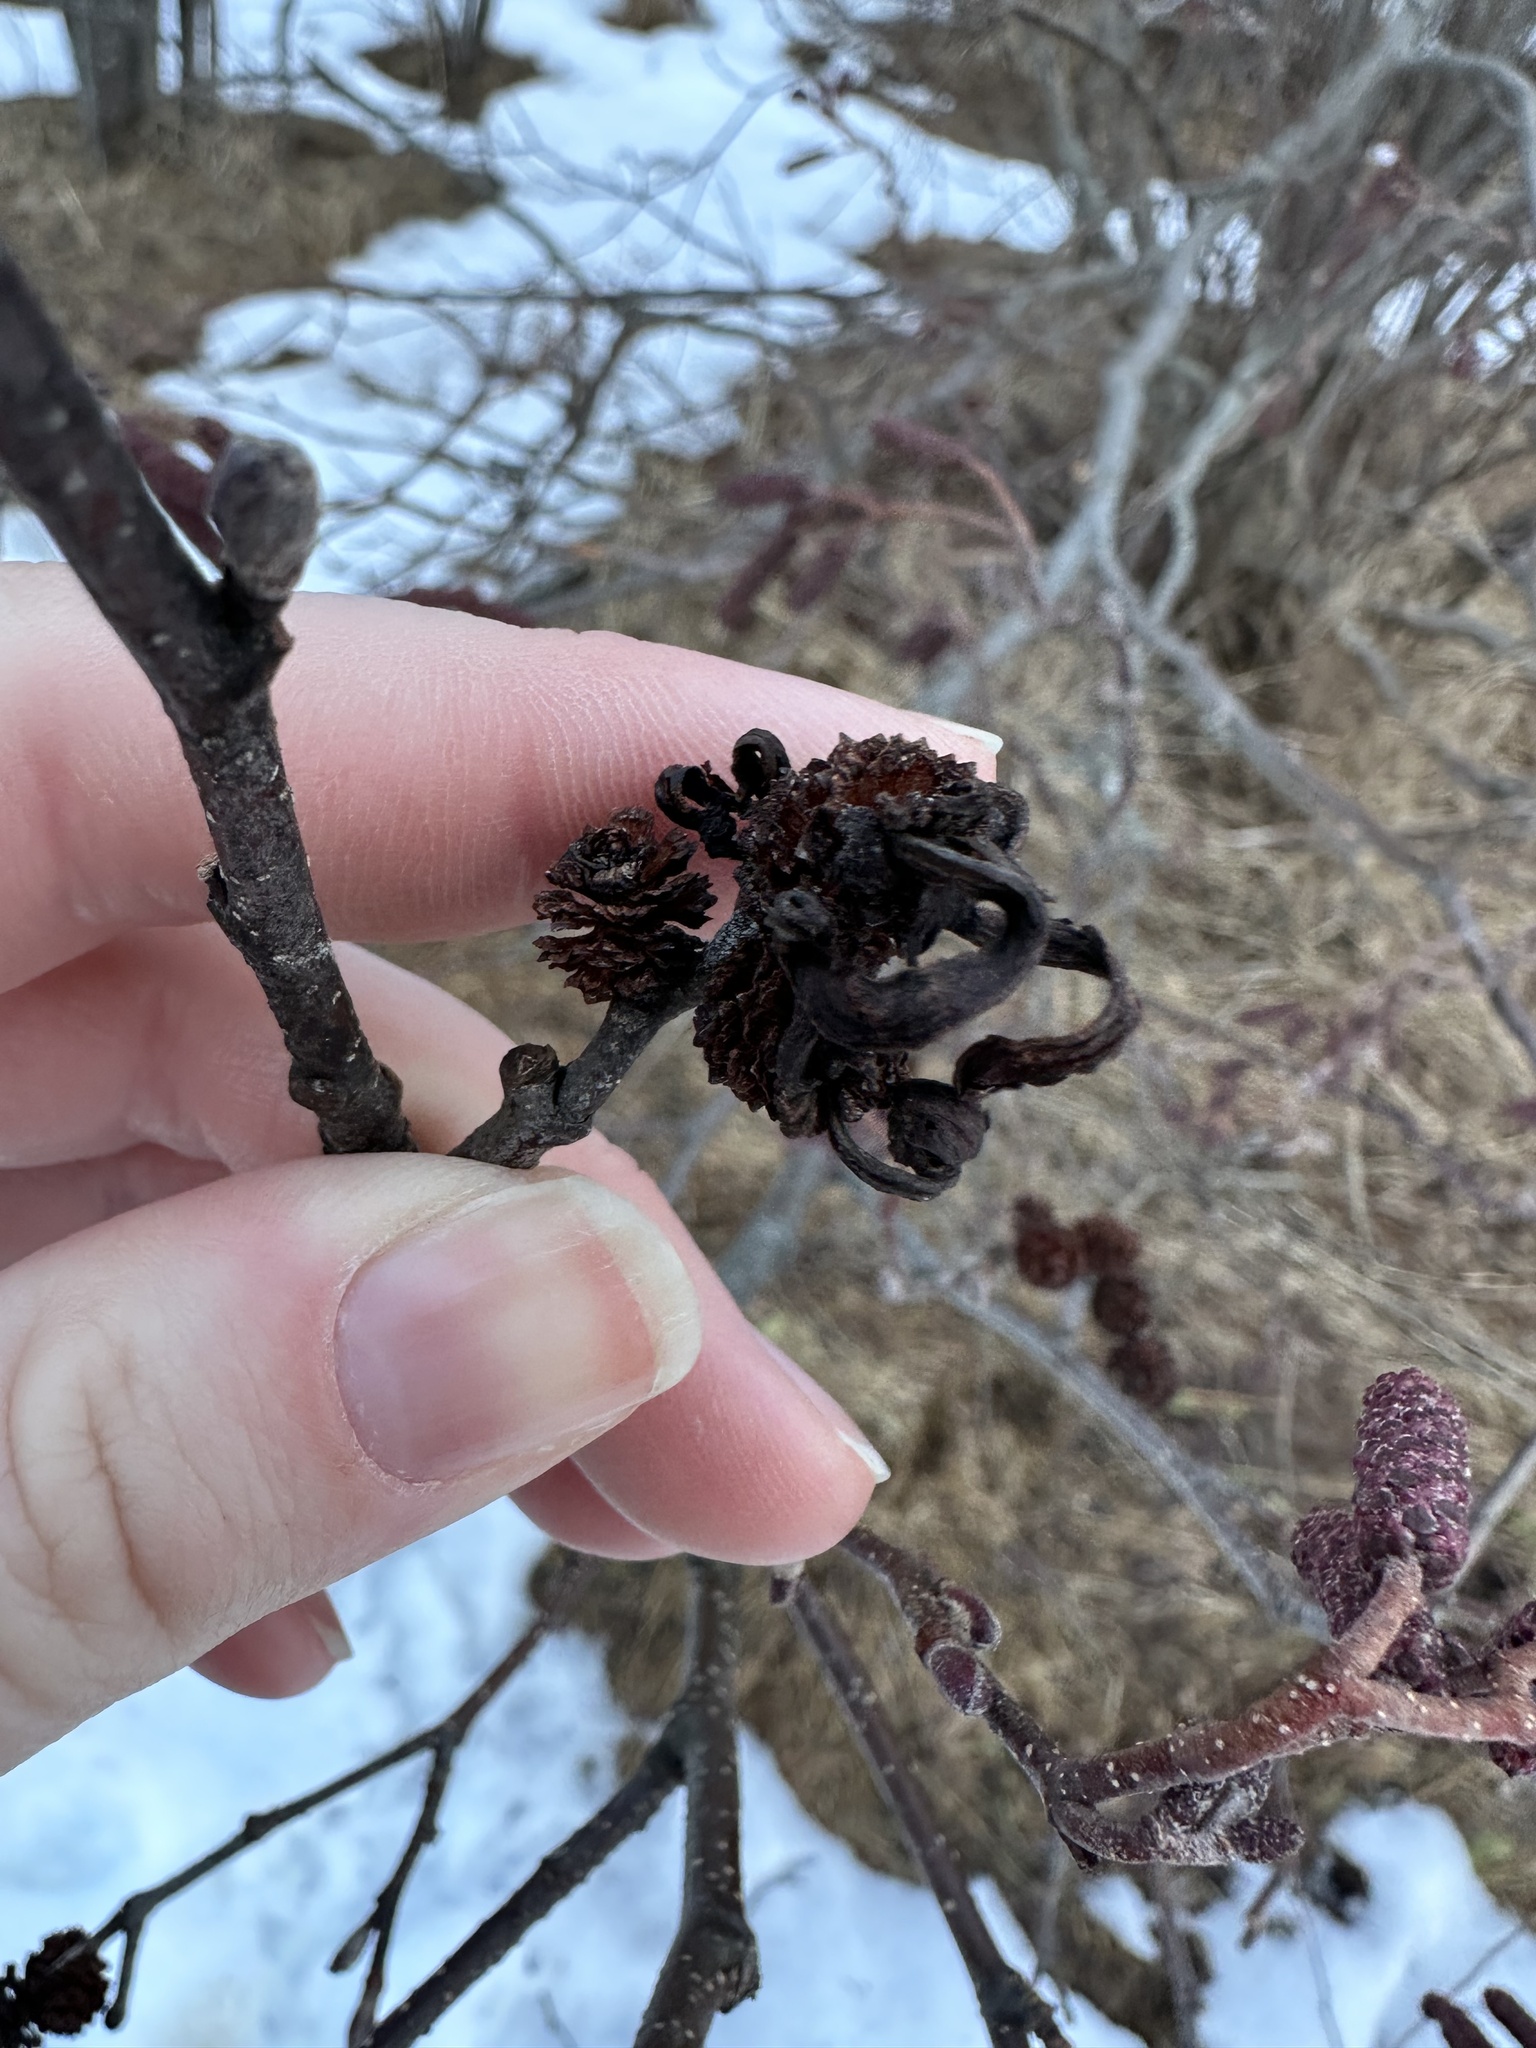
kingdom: Fungi
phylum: Ascomycota
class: Taphrinomycetes
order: Taphrinales
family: Taphrinaceae
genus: Taphrina
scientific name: Taphrina robinsoniana
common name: Eastern american alder tongue gall fungus
